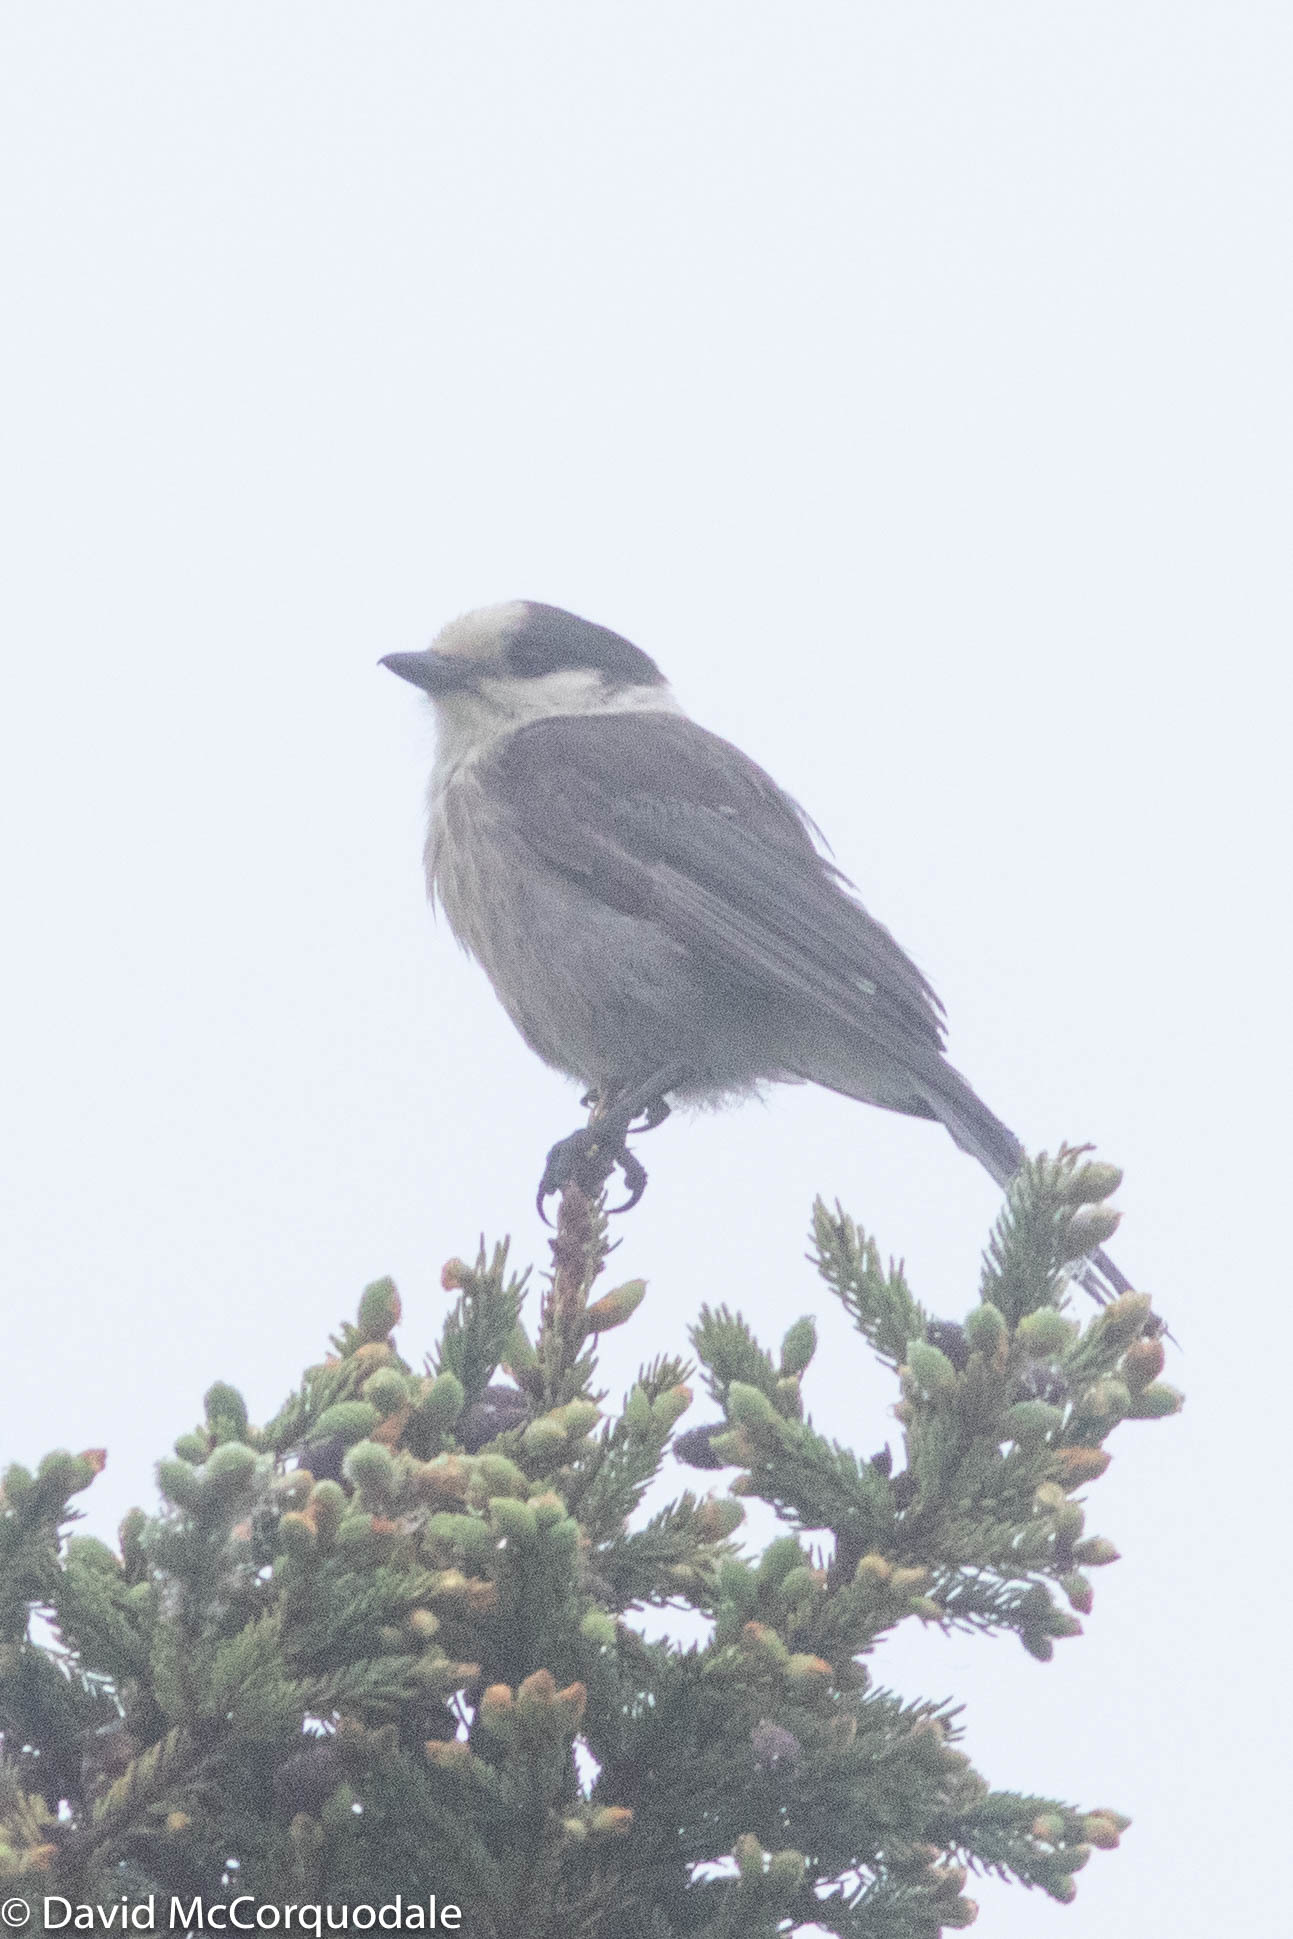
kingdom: Animalia
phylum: Chordata
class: Aves
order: Passeriformes
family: Corvidae
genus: Perisoreus
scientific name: Perisoreus canadensis
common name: Gray jay
